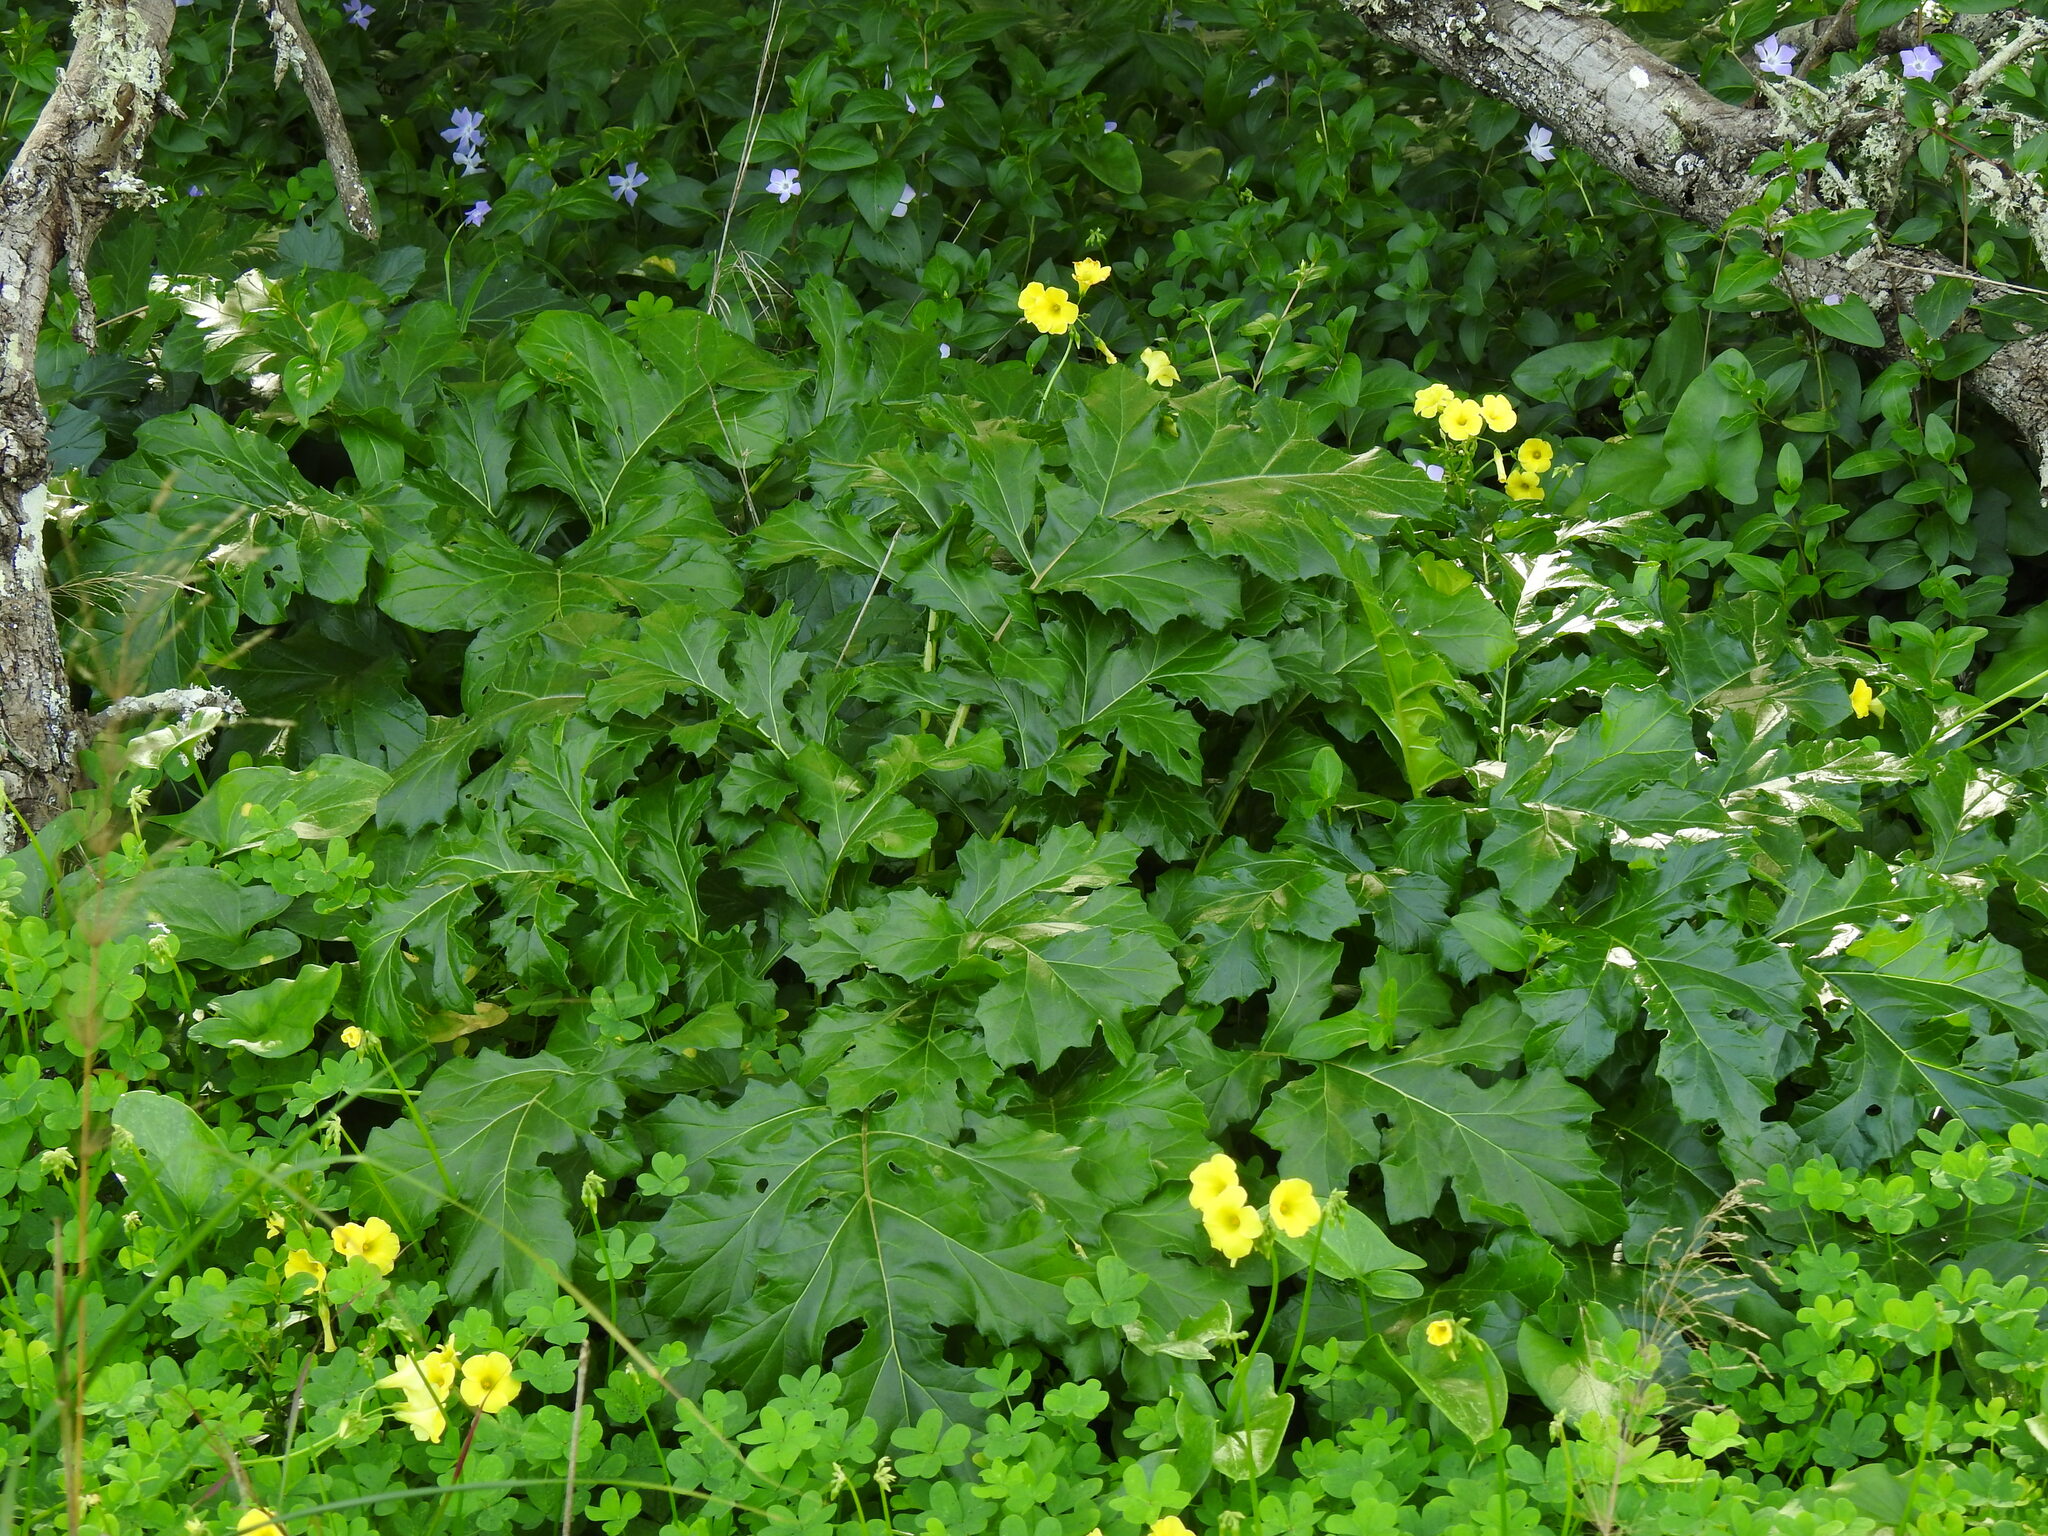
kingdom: Plantae
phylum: Tracheophyta
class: Magnoliopsida
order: Lamiales
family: Acanthaceae
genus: Acanthus
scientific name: Acanthus mollis
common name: Bear's-breech
